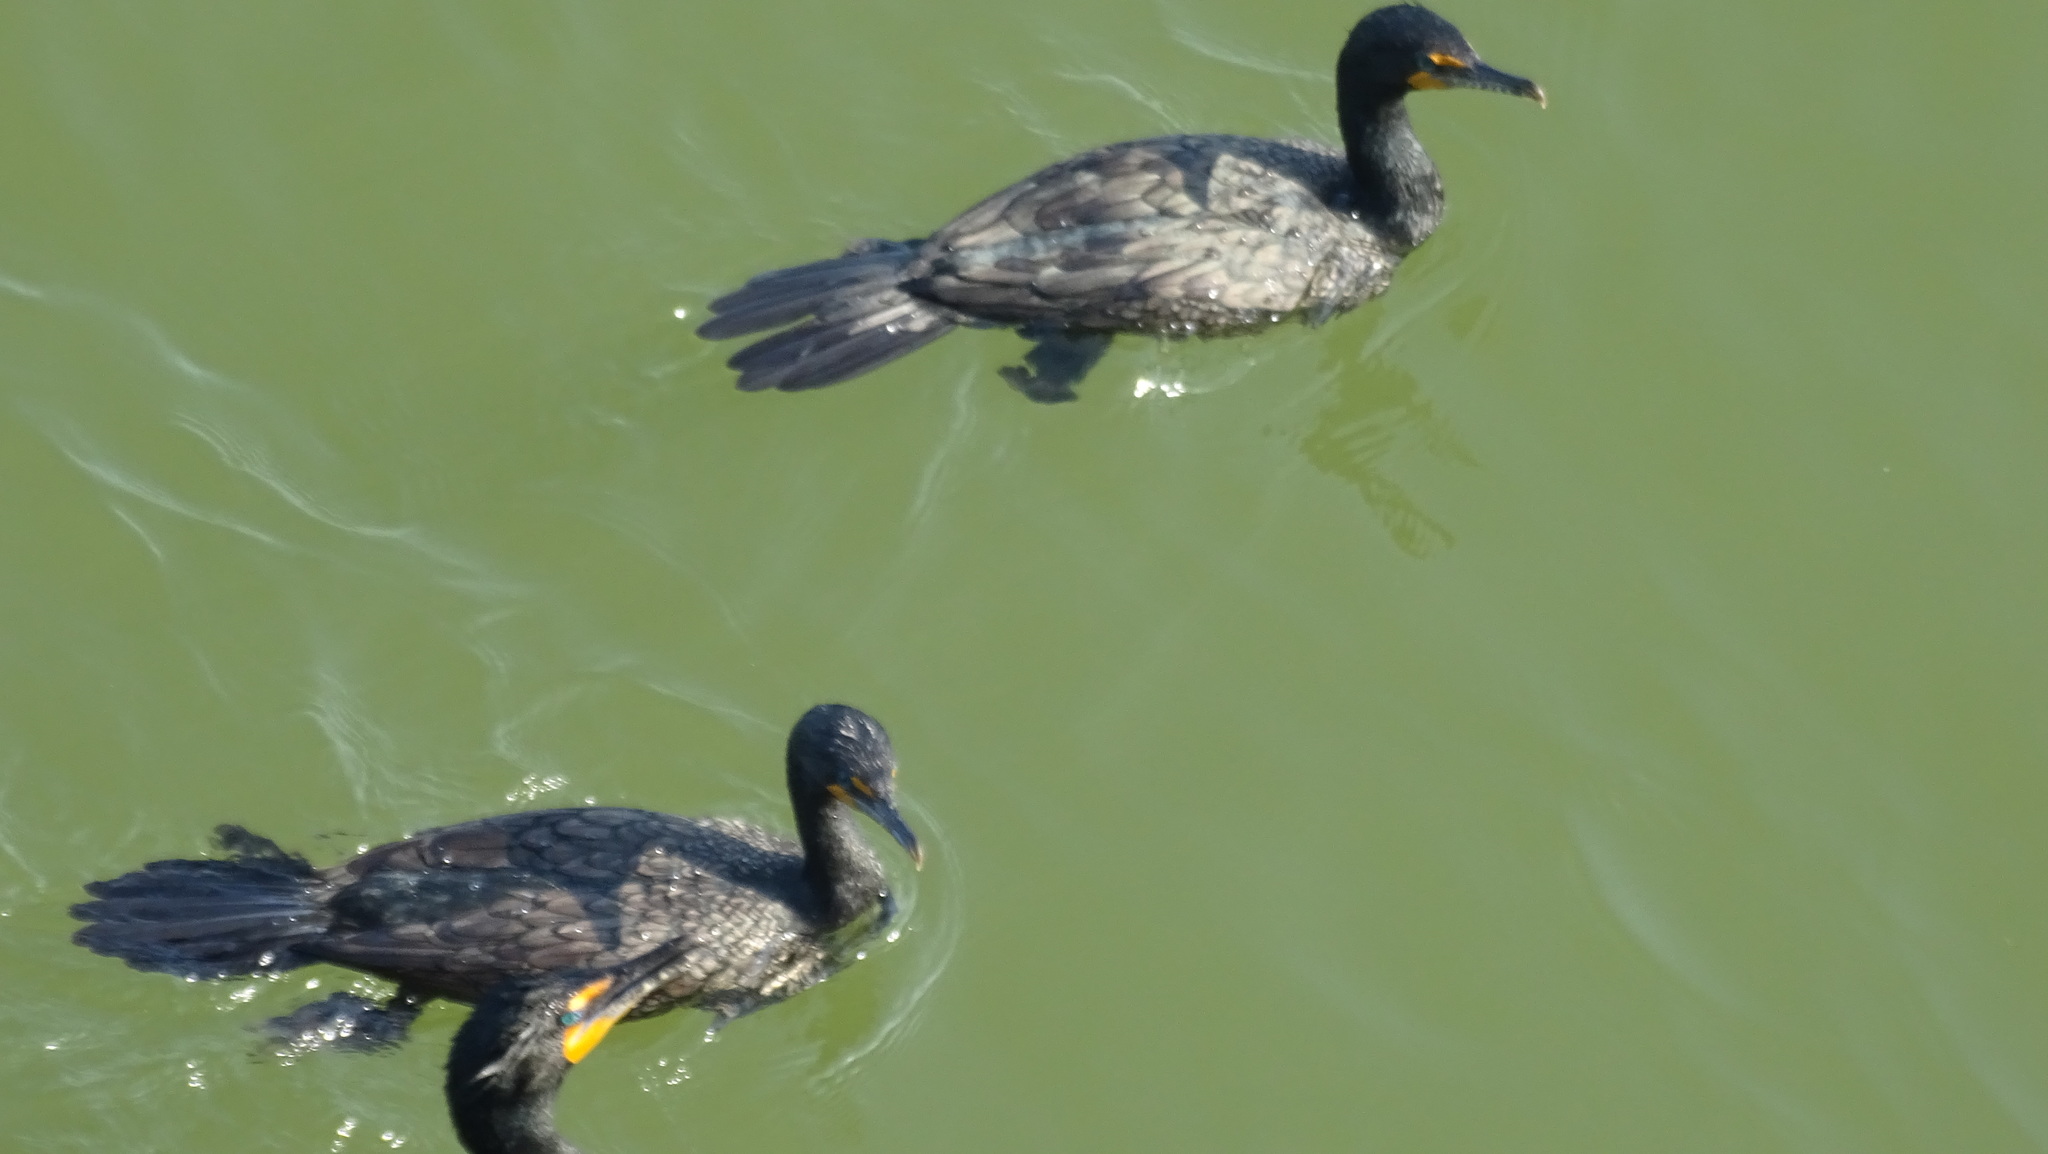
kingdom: Animalia
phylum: Chordata
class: Aves
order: Suliformes
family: Phalacrocoracidae
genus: Phalacrocorax
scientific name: Phalacrocorax auritus
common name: Double-crested cormorant
